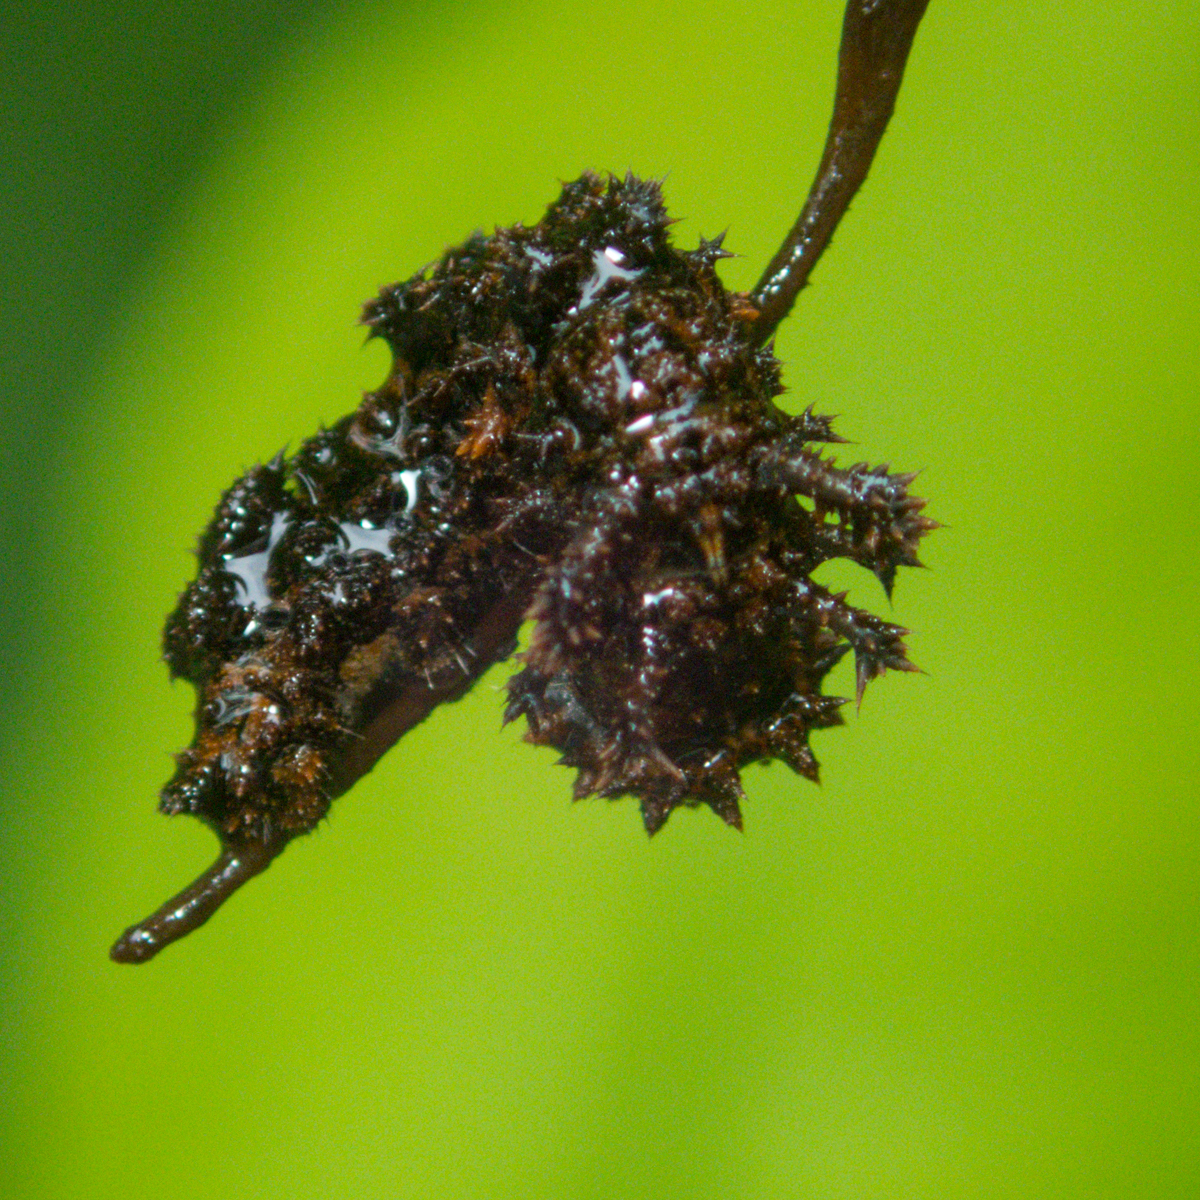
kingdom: Animalia
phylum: Arthropoda
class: Insecta
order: Lepidoptera
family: Nymphalidae
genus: Limenitis
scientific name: Limenitis Moduza procris
